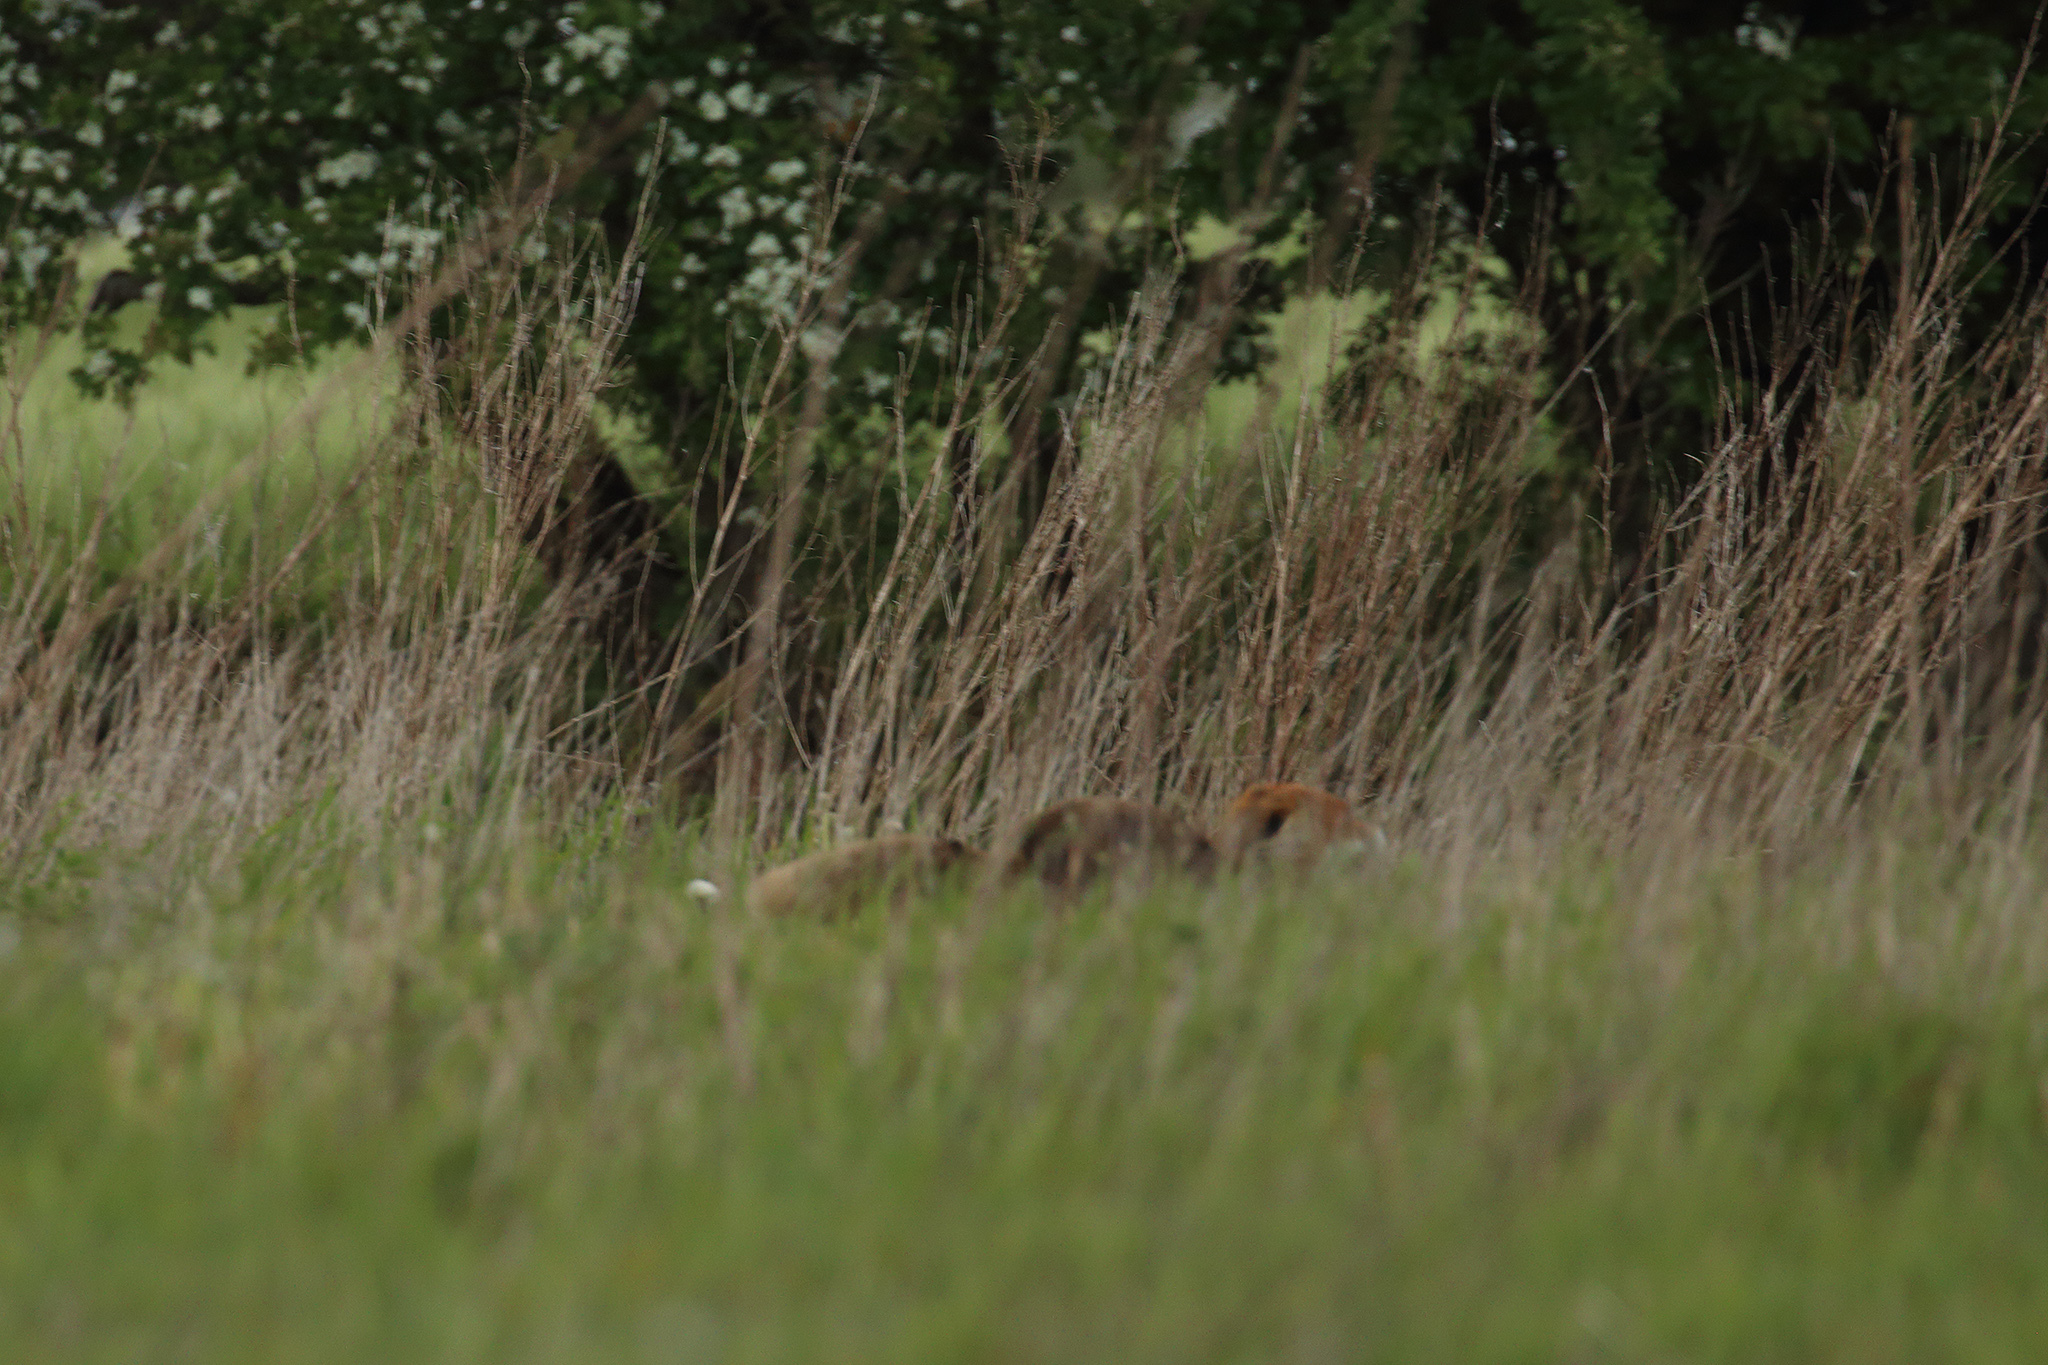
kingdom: Animalia
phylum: Chordata
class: Mammalia
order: Carnivora
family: Canidae
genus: Vulpes
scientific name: Vulpes vulpes
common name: Red fox
